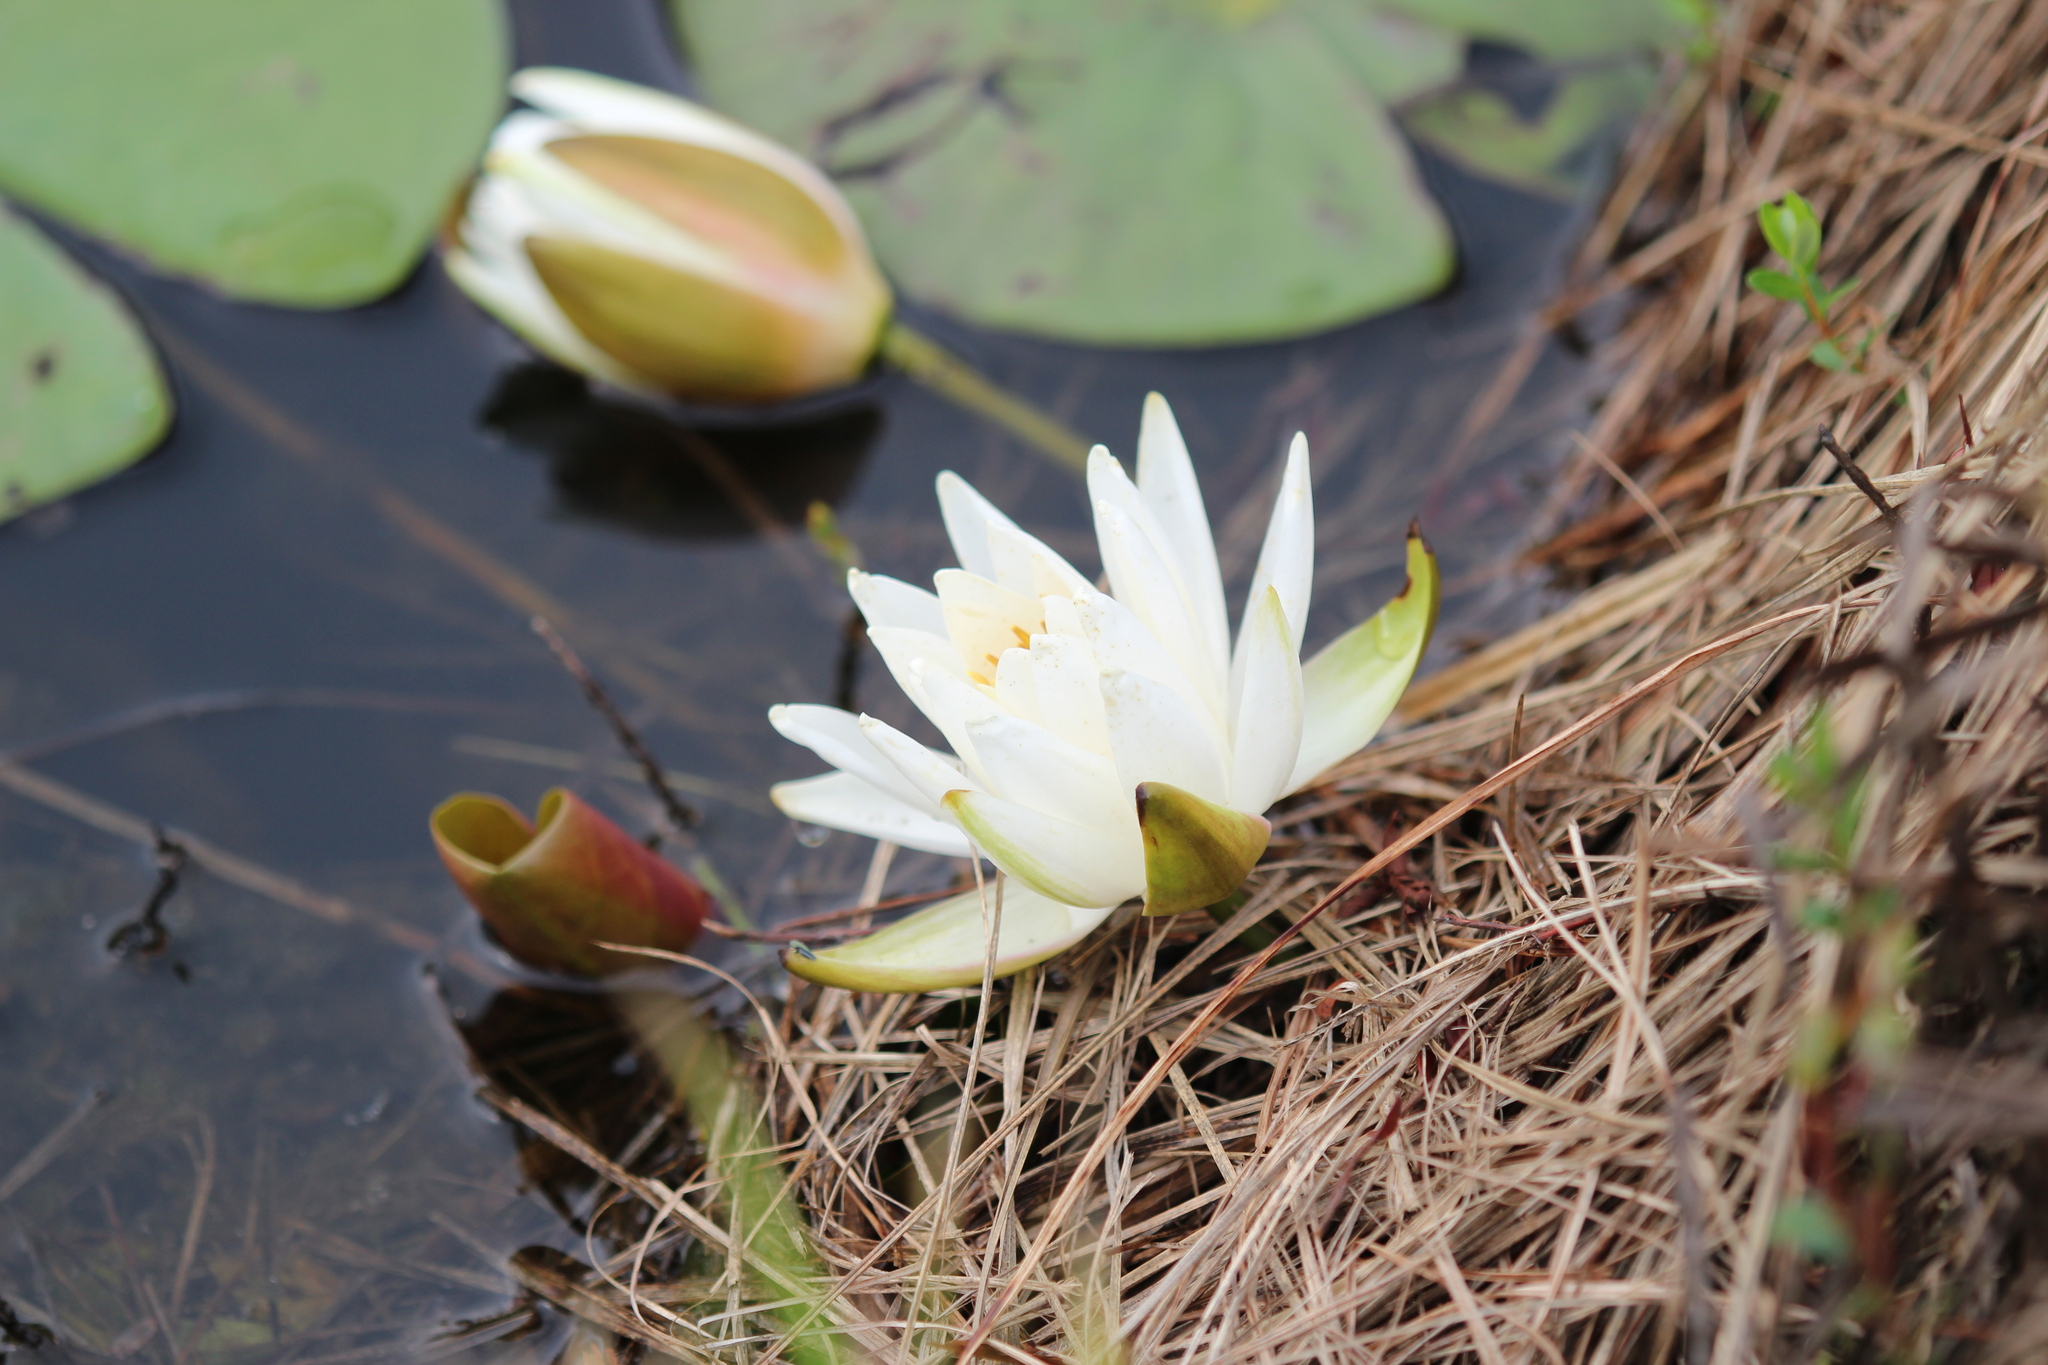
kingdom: Plantae
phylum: Tracheophyta
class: Magnoliopsida
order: Nymphaeales
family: Nymphaeaceae
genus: Nymphaea
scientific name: Nymphaea odorata
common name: Fragrant water-lily
